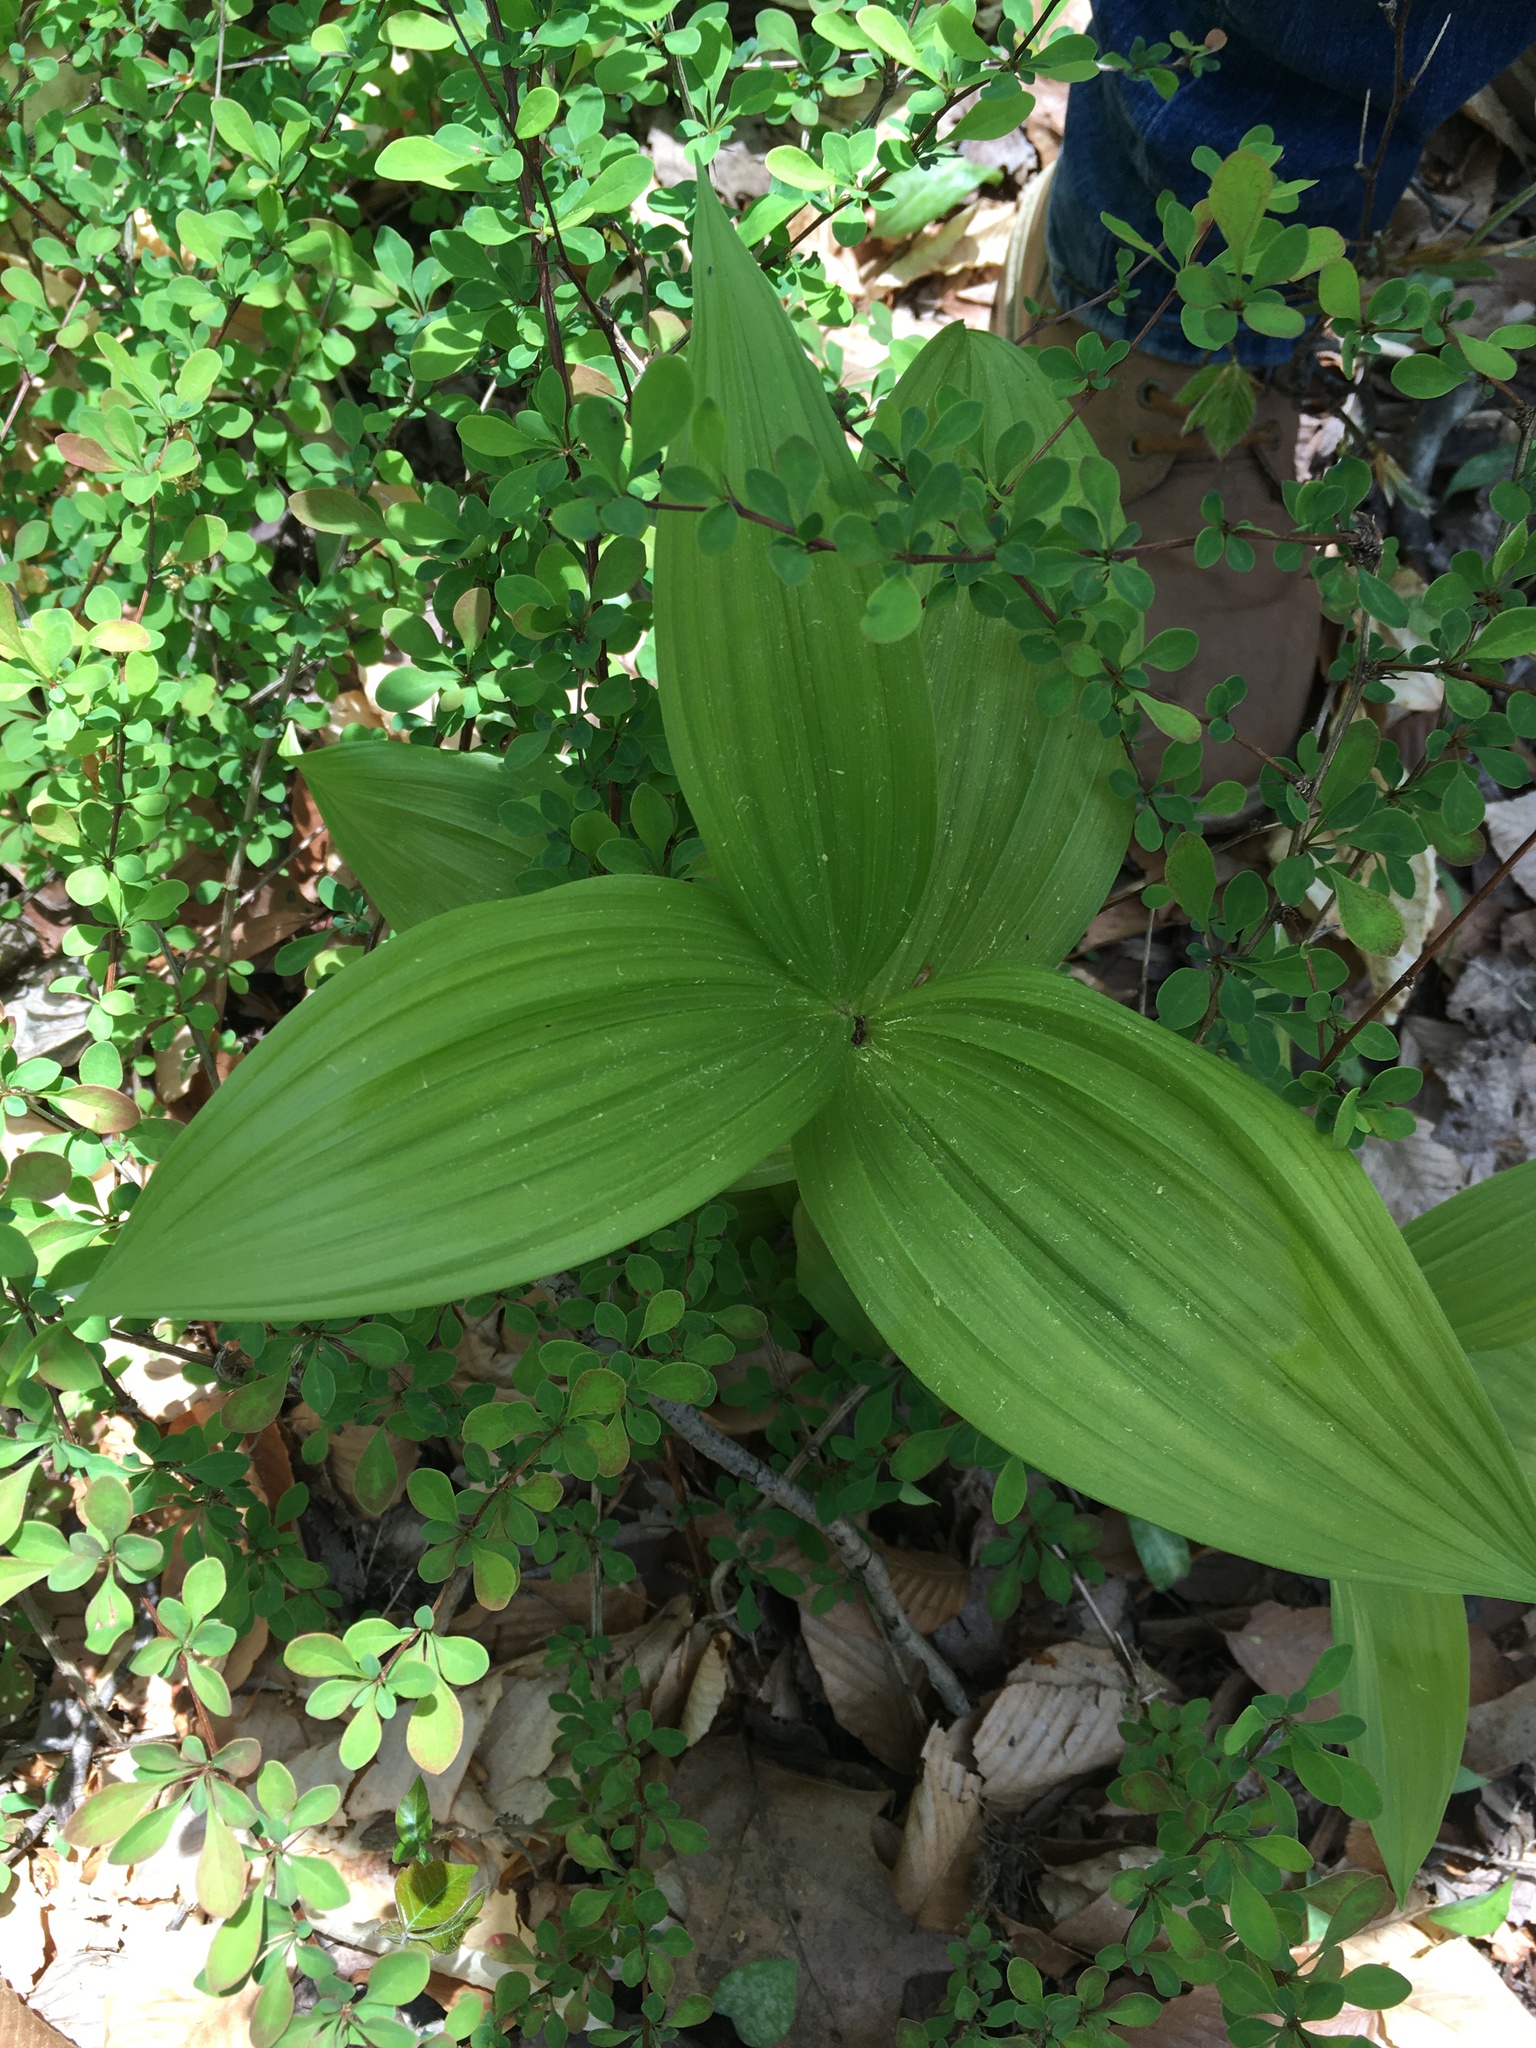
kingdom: Plantae
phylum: Tracheophyta
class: Liliopsida
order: Liliales
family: Melanthiaceae
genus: Veratrum
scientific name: Veratrum viride
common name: American false hellebore
